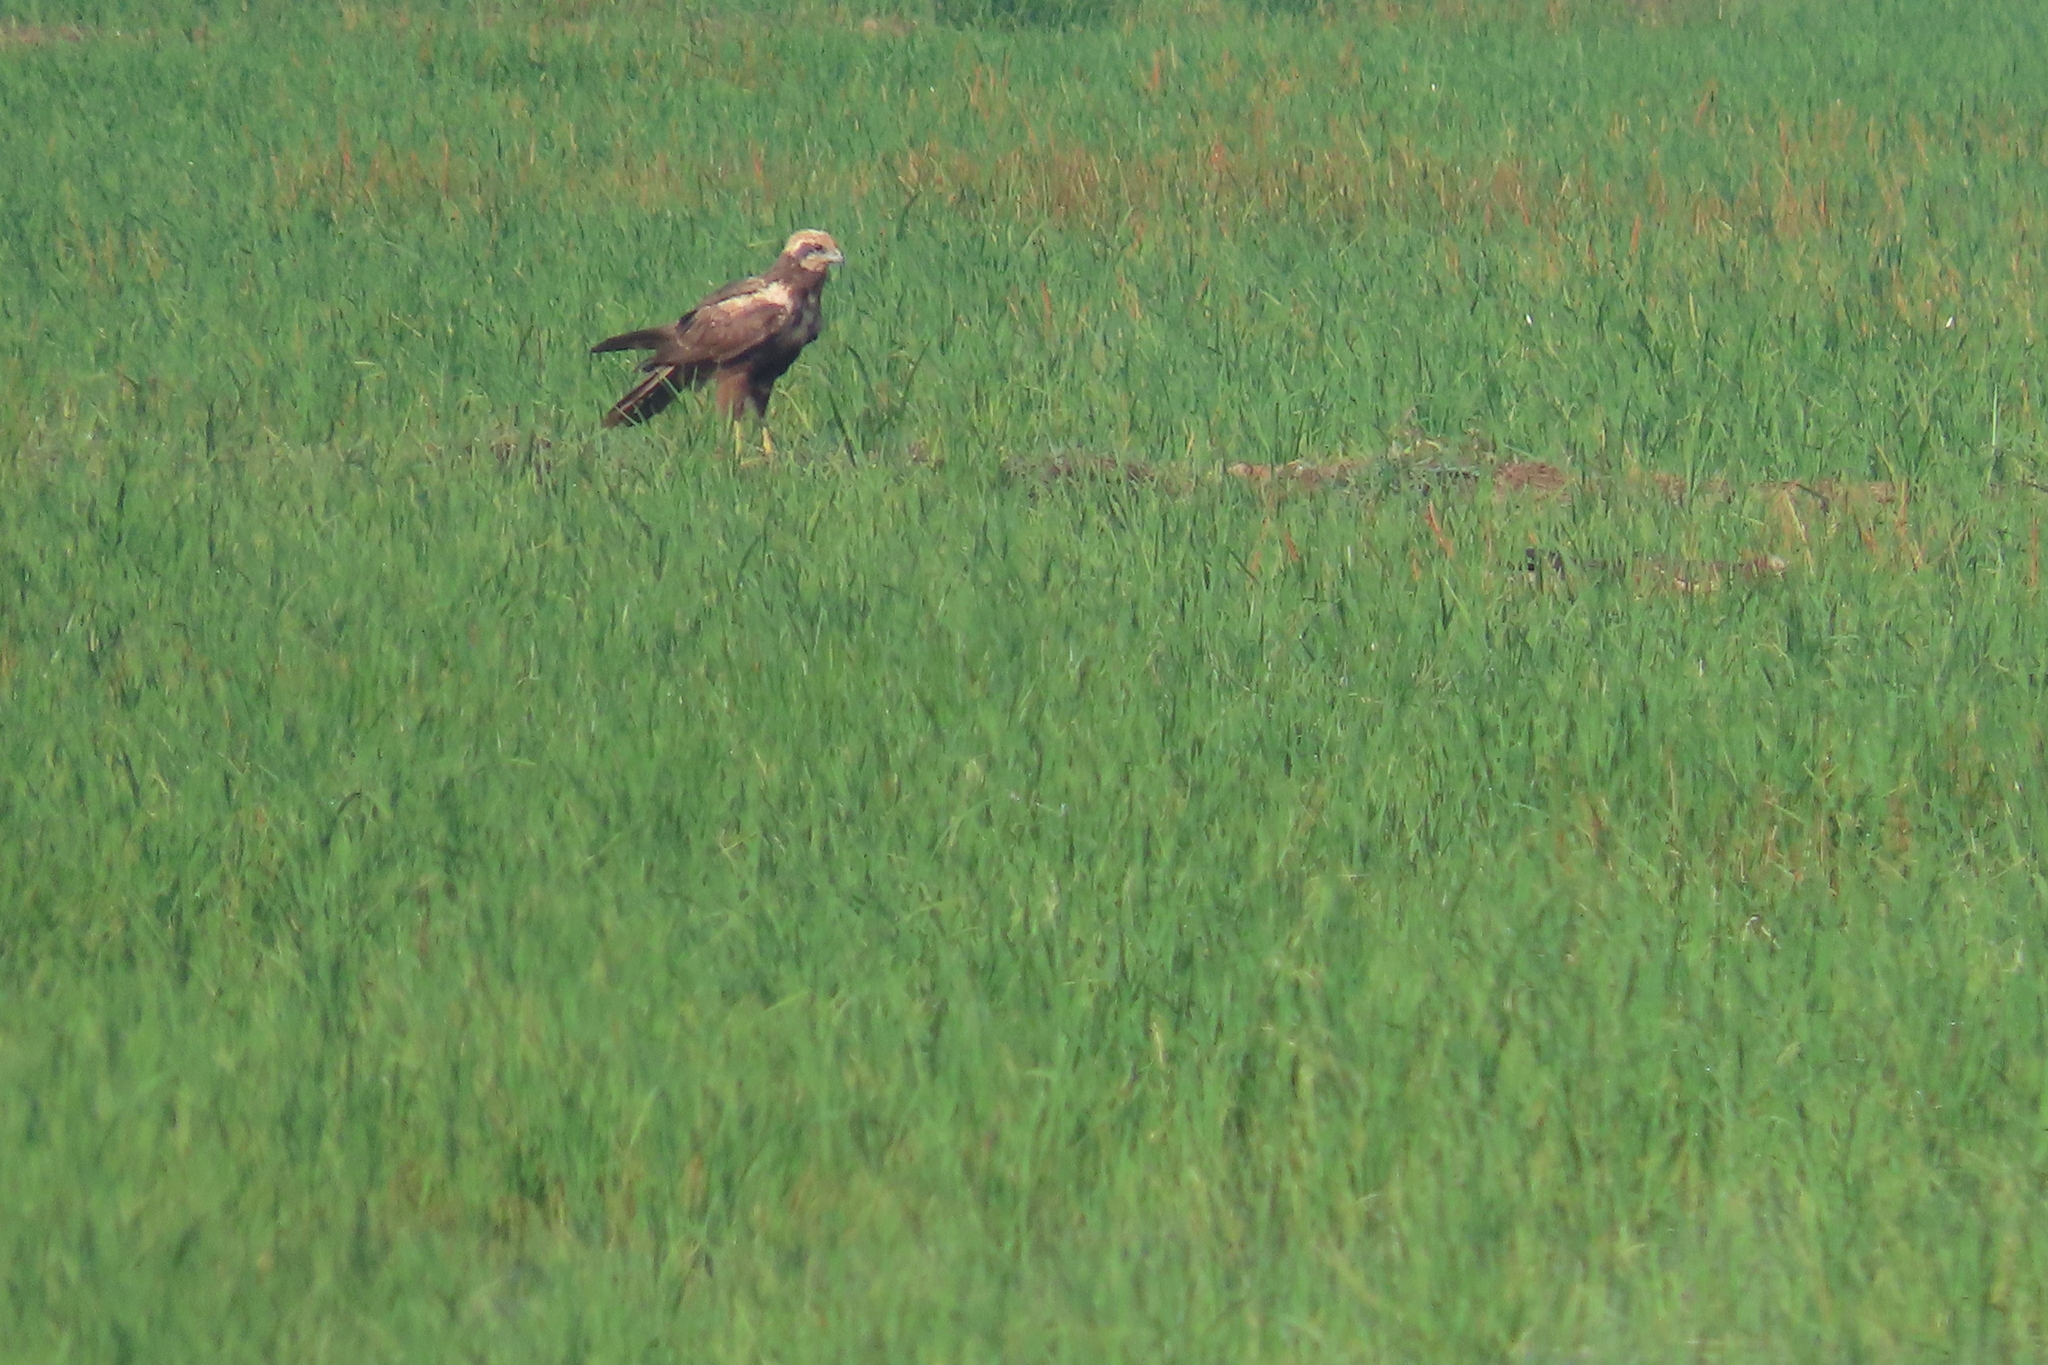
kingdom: Animalia
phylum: Chordata
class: Aves
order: Accipitriformes
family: Accipitridae
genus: Circus
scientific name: Circus aeruginosus
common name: Western marsh harrier
